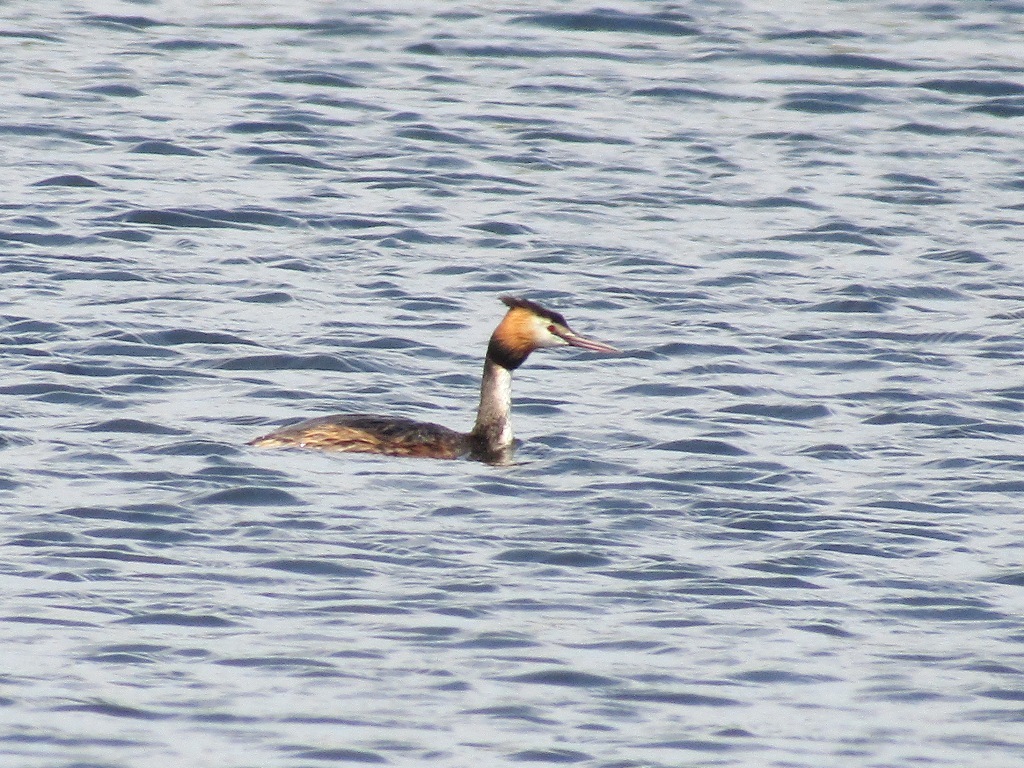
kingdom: Animalia
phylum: Chordata
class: Aves
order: Podicipediformes
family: Podicipedidae
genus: Podiceps
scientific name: Podiceps cristatus
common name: Great crested grebe
